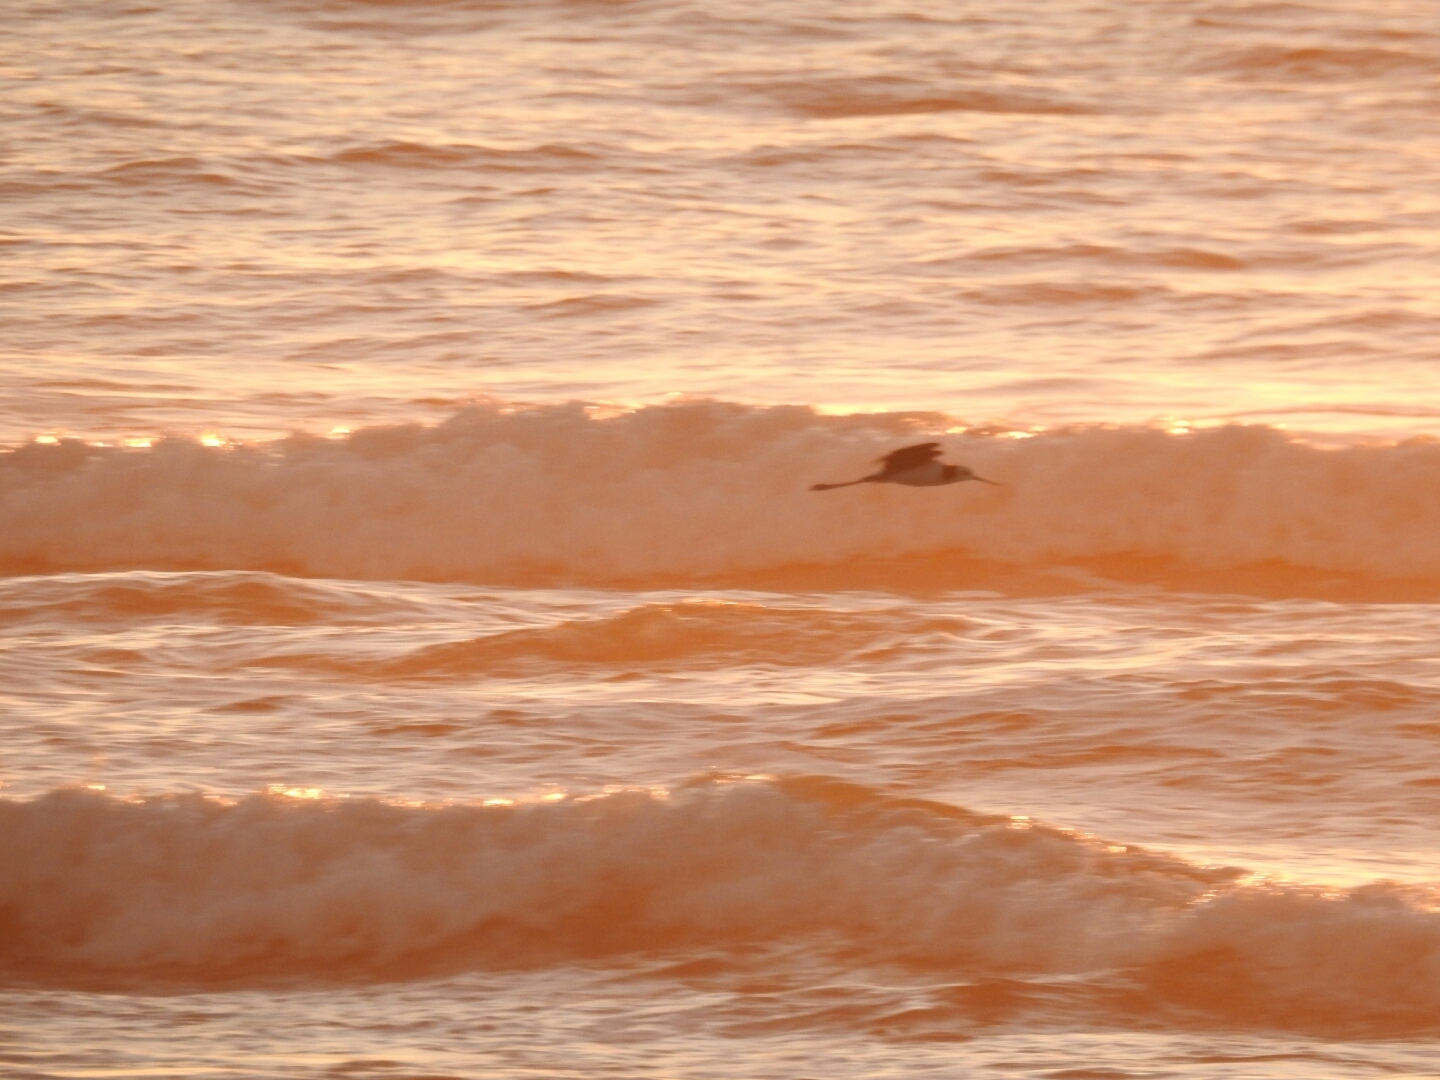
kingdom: Animalia
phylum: Chordata
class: Aves
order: Charadriiformes
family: Recurvirostridae
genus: Himantopus
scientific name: Himantopus leucocephalus
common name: White-headed stilt
